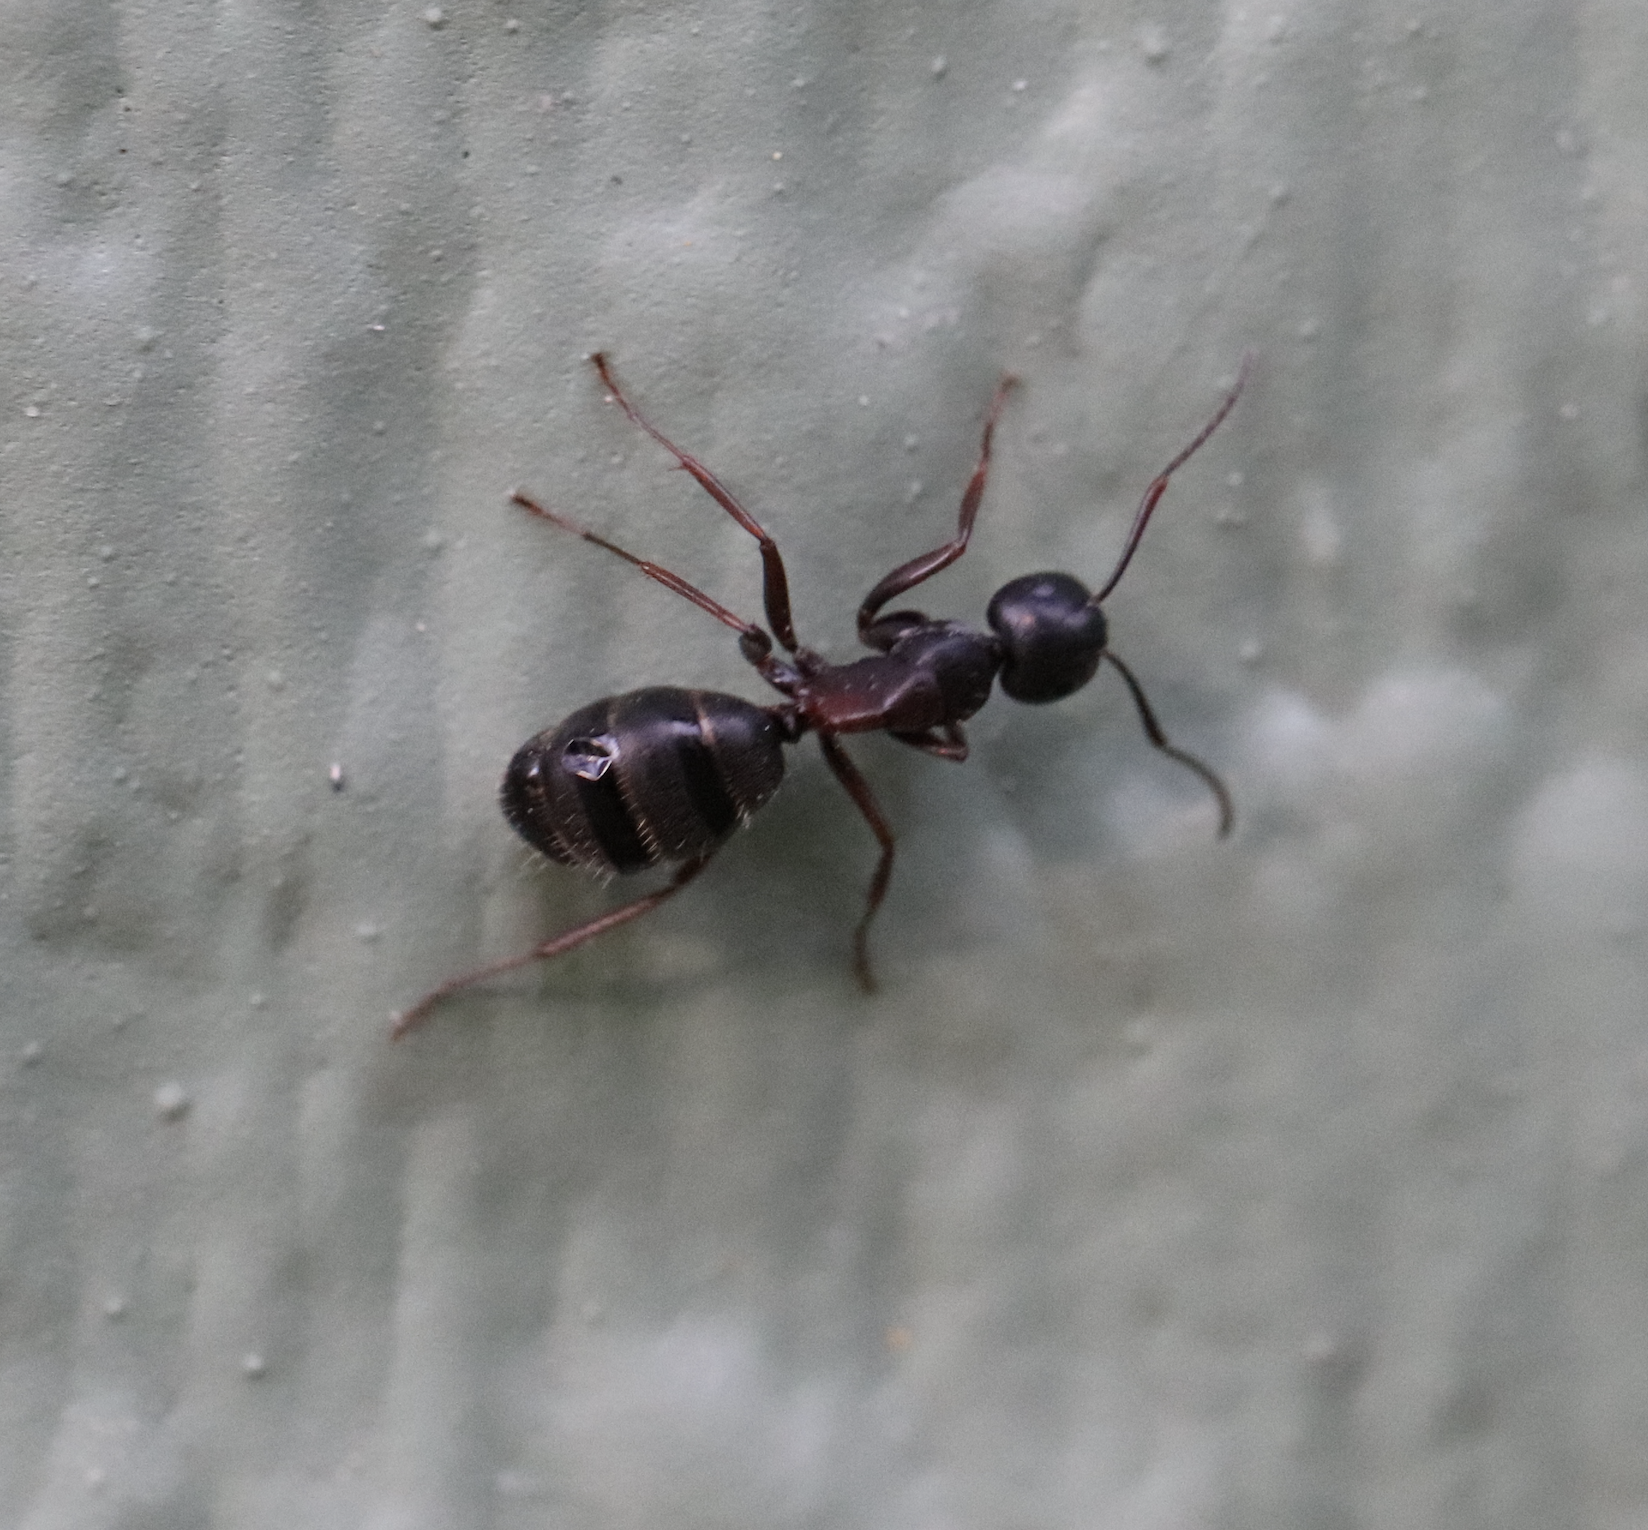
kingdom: Animalia
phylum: Arthropoda
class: Insecta
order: Hymenoptera
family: Formicidae
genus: Camponotus
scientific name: Camponotus herculeanus
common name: Hercules ant
